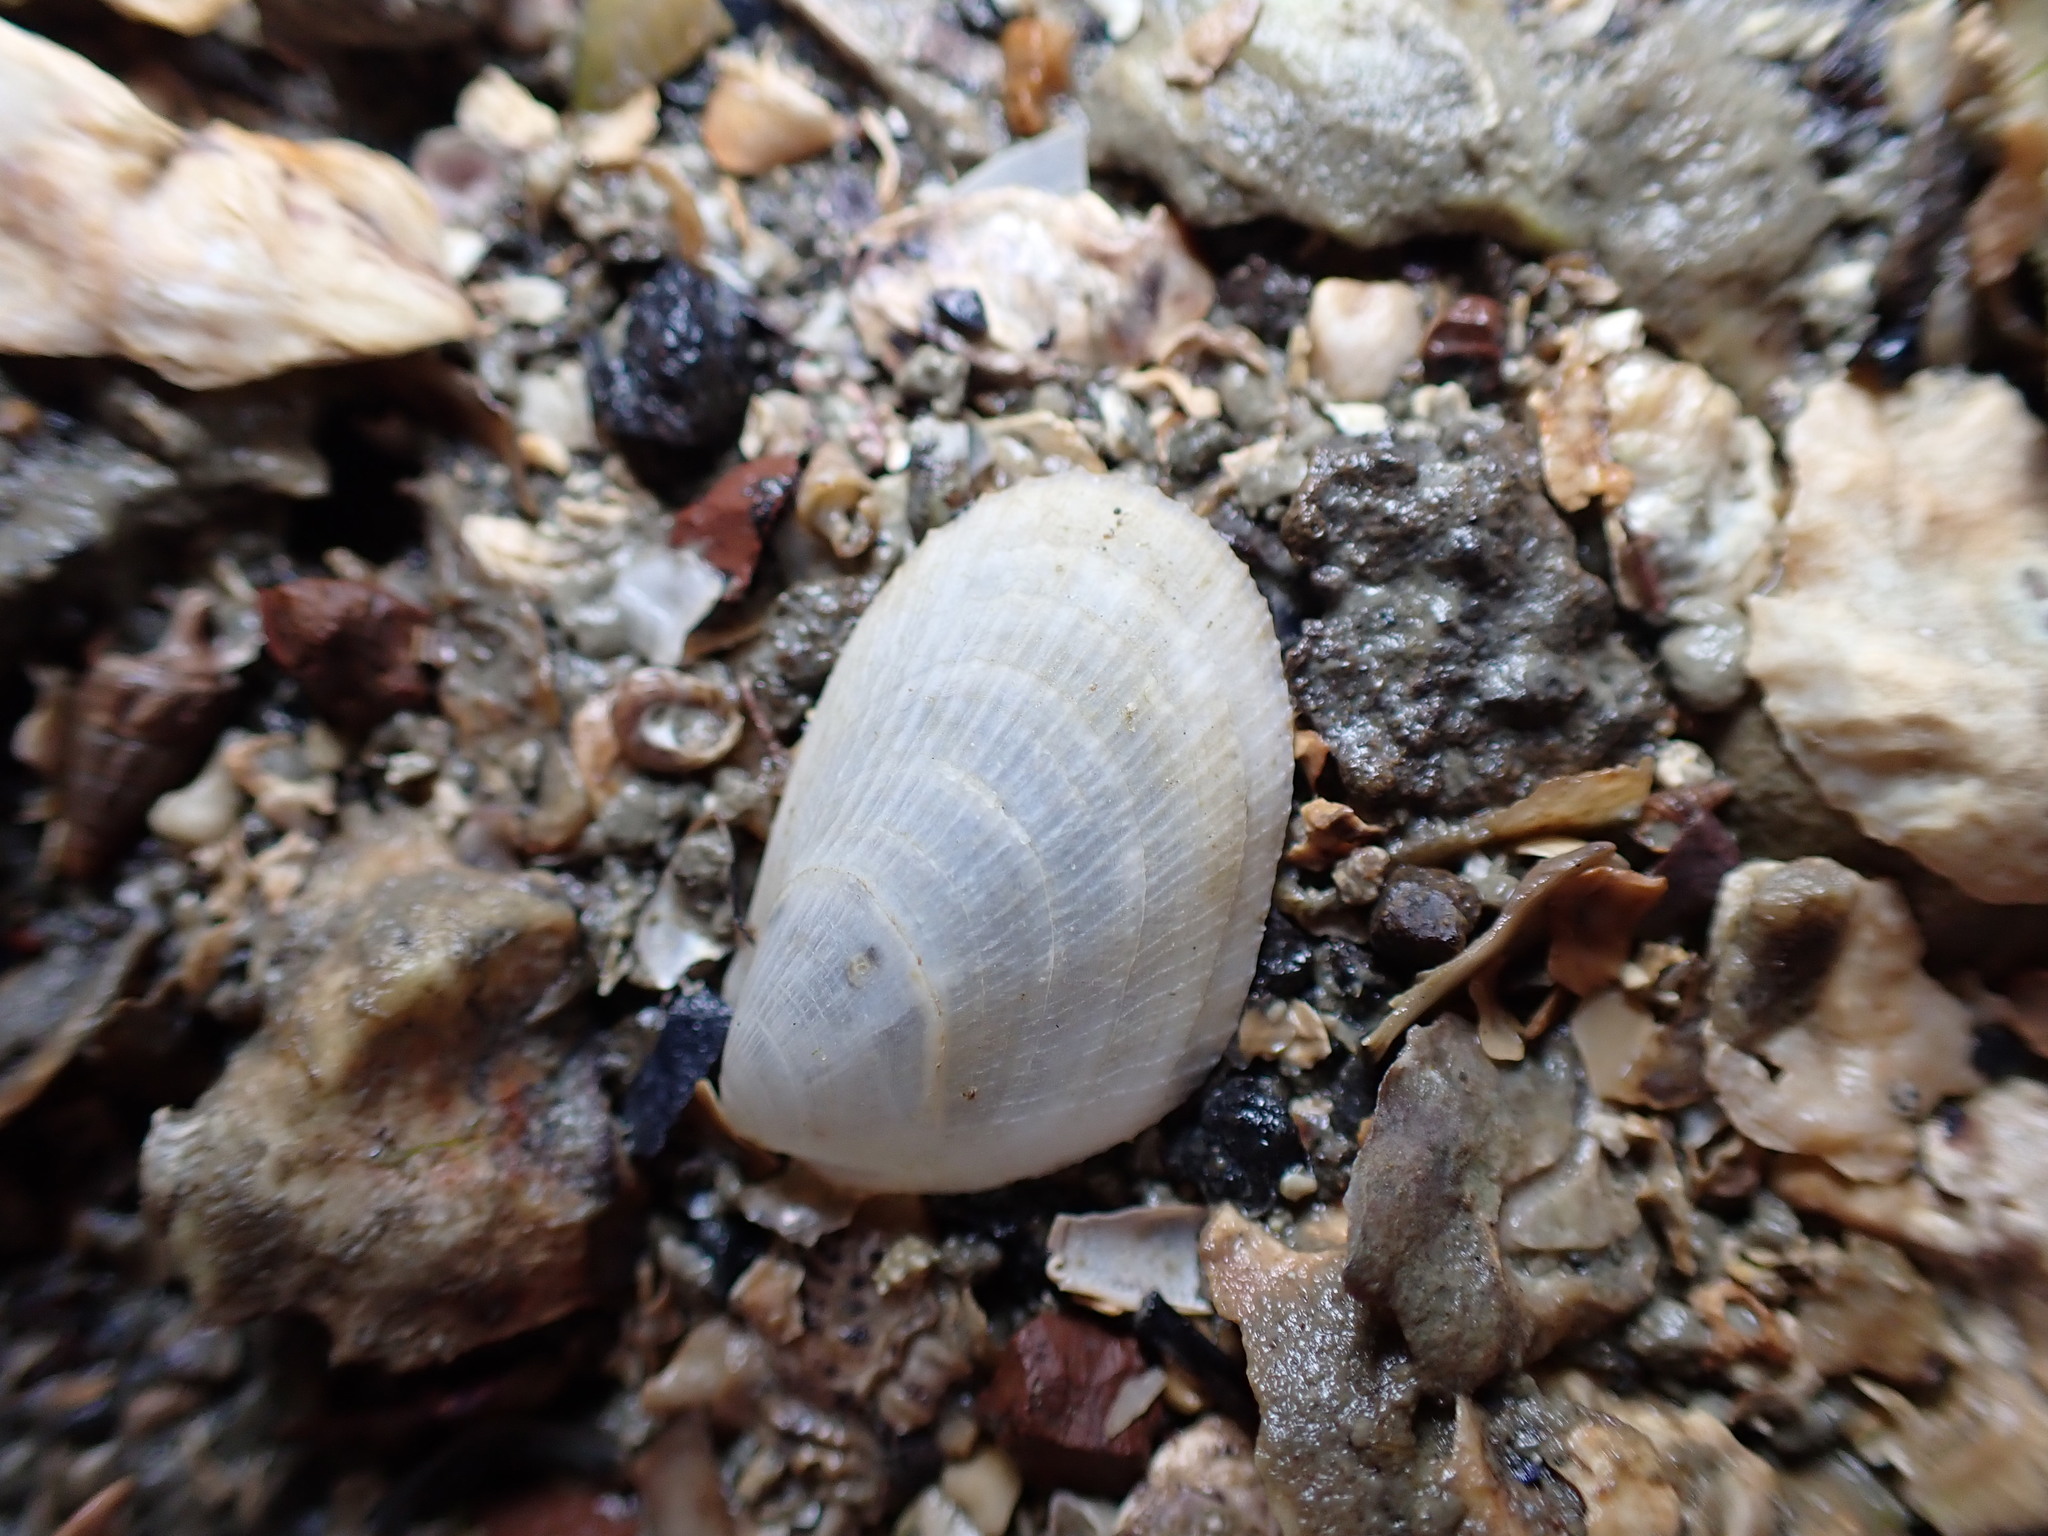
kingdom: Animalia
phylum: Mollusca
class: Bivalvia
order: Limida
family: Limidae
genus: Limaria
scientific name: Limaria orientalis
